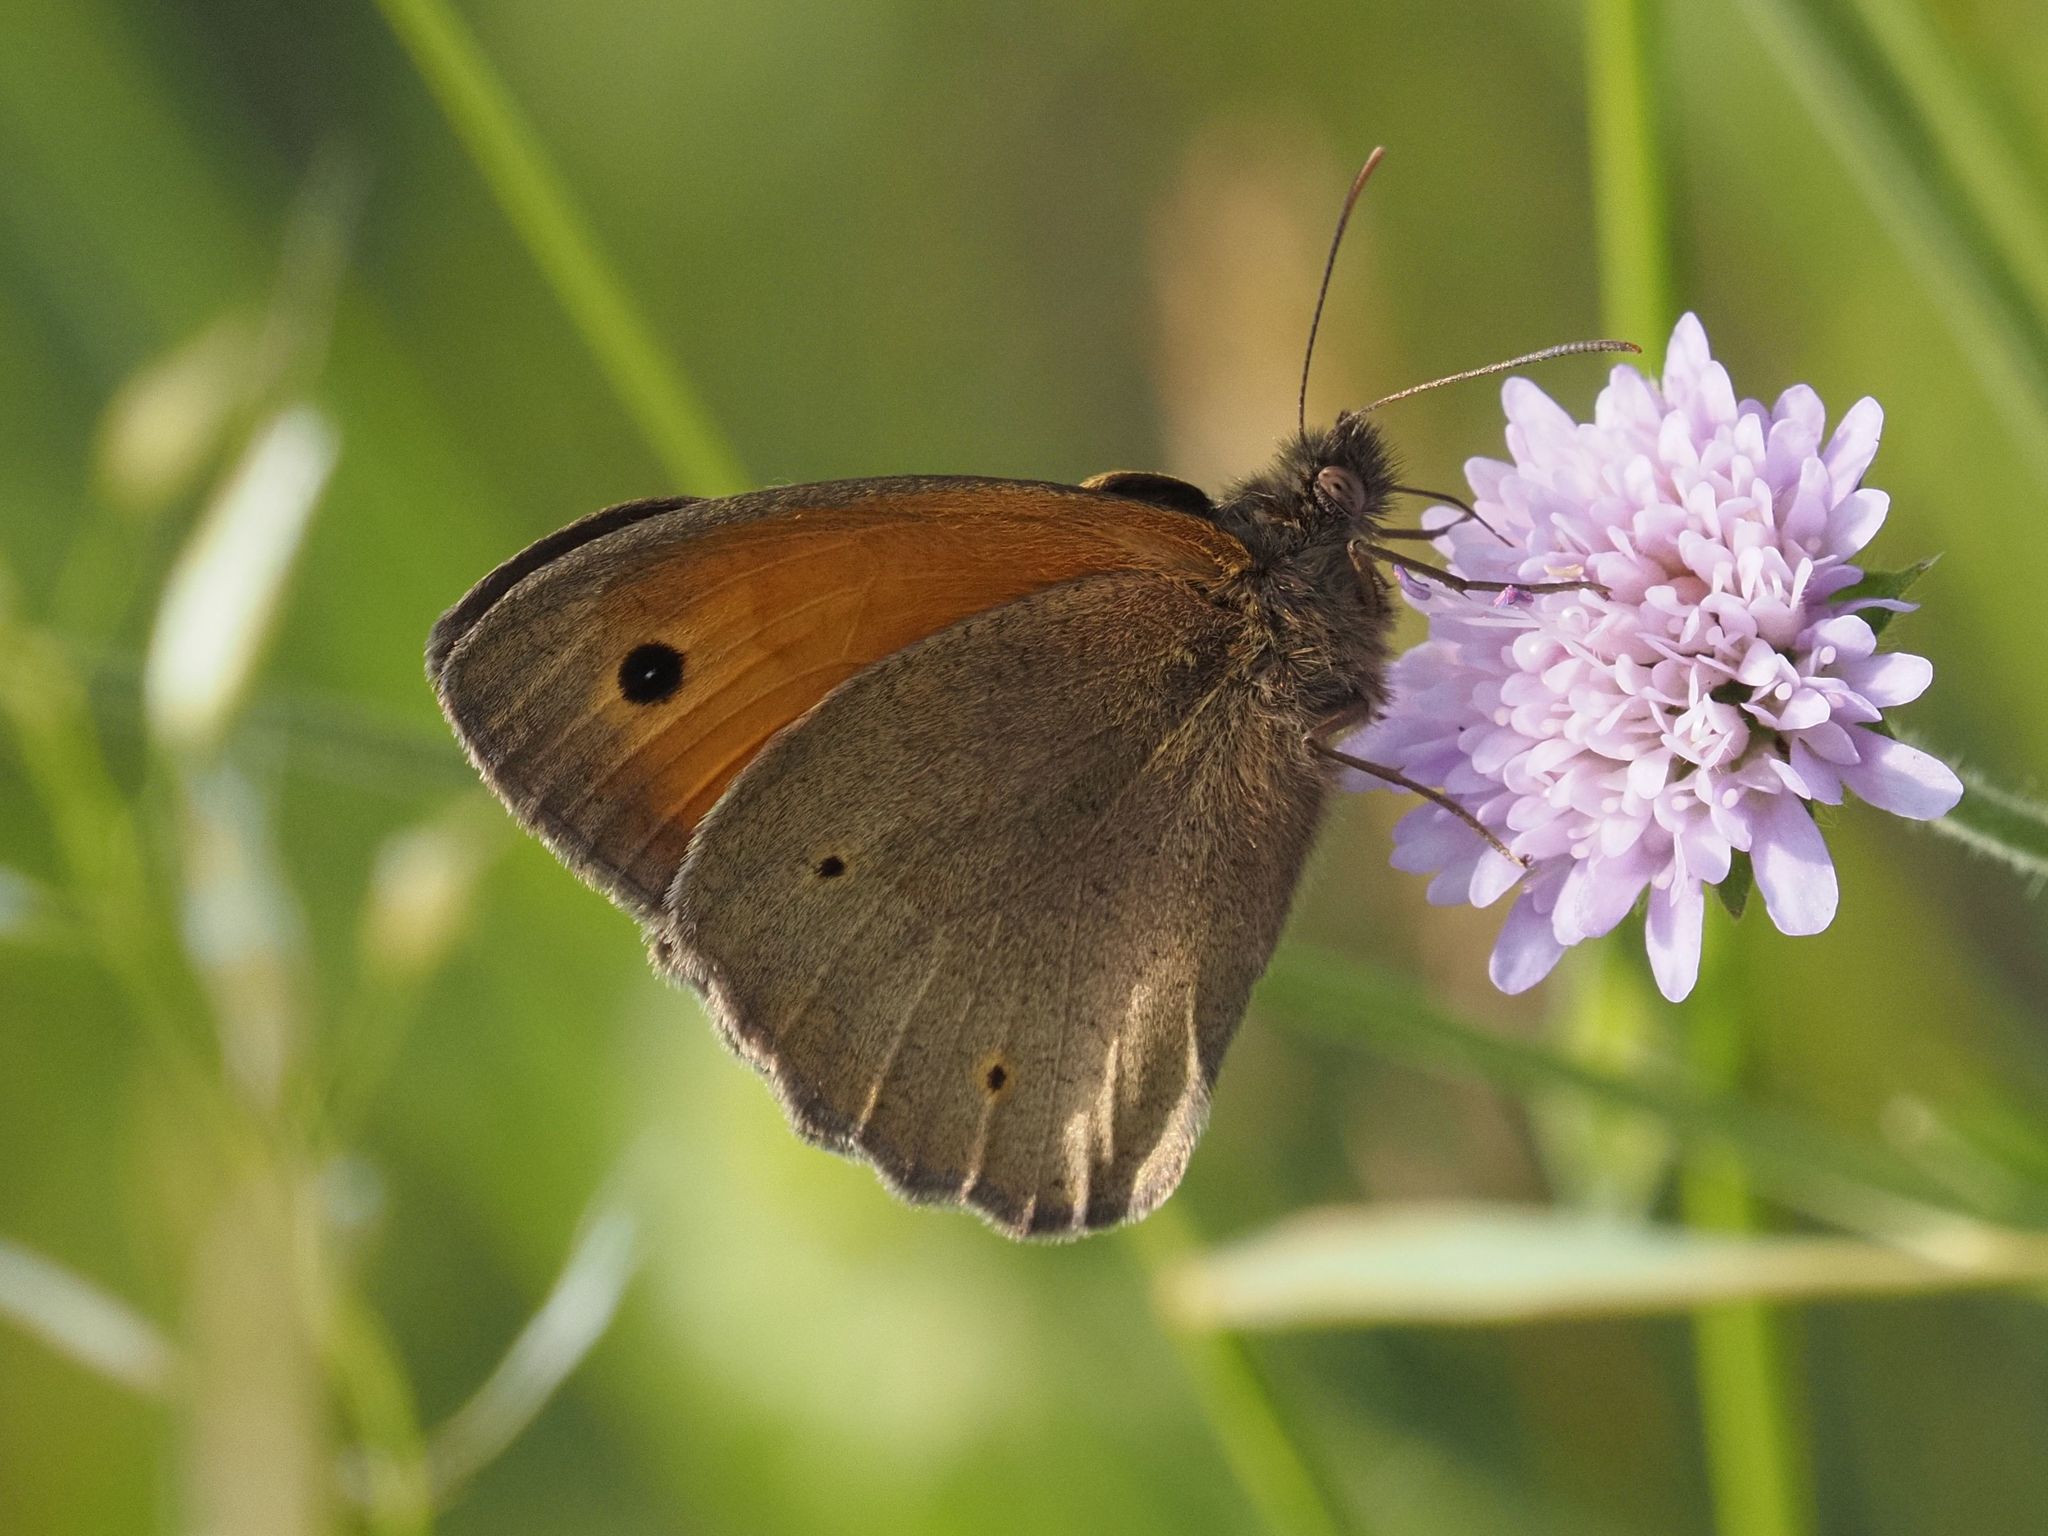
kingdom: Animalia
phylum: Arthropoda
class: Insecta
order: Lepidoptera
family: Nymphalidae
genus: Maniola
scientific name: Maniola jurtina
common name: Meadow brown
